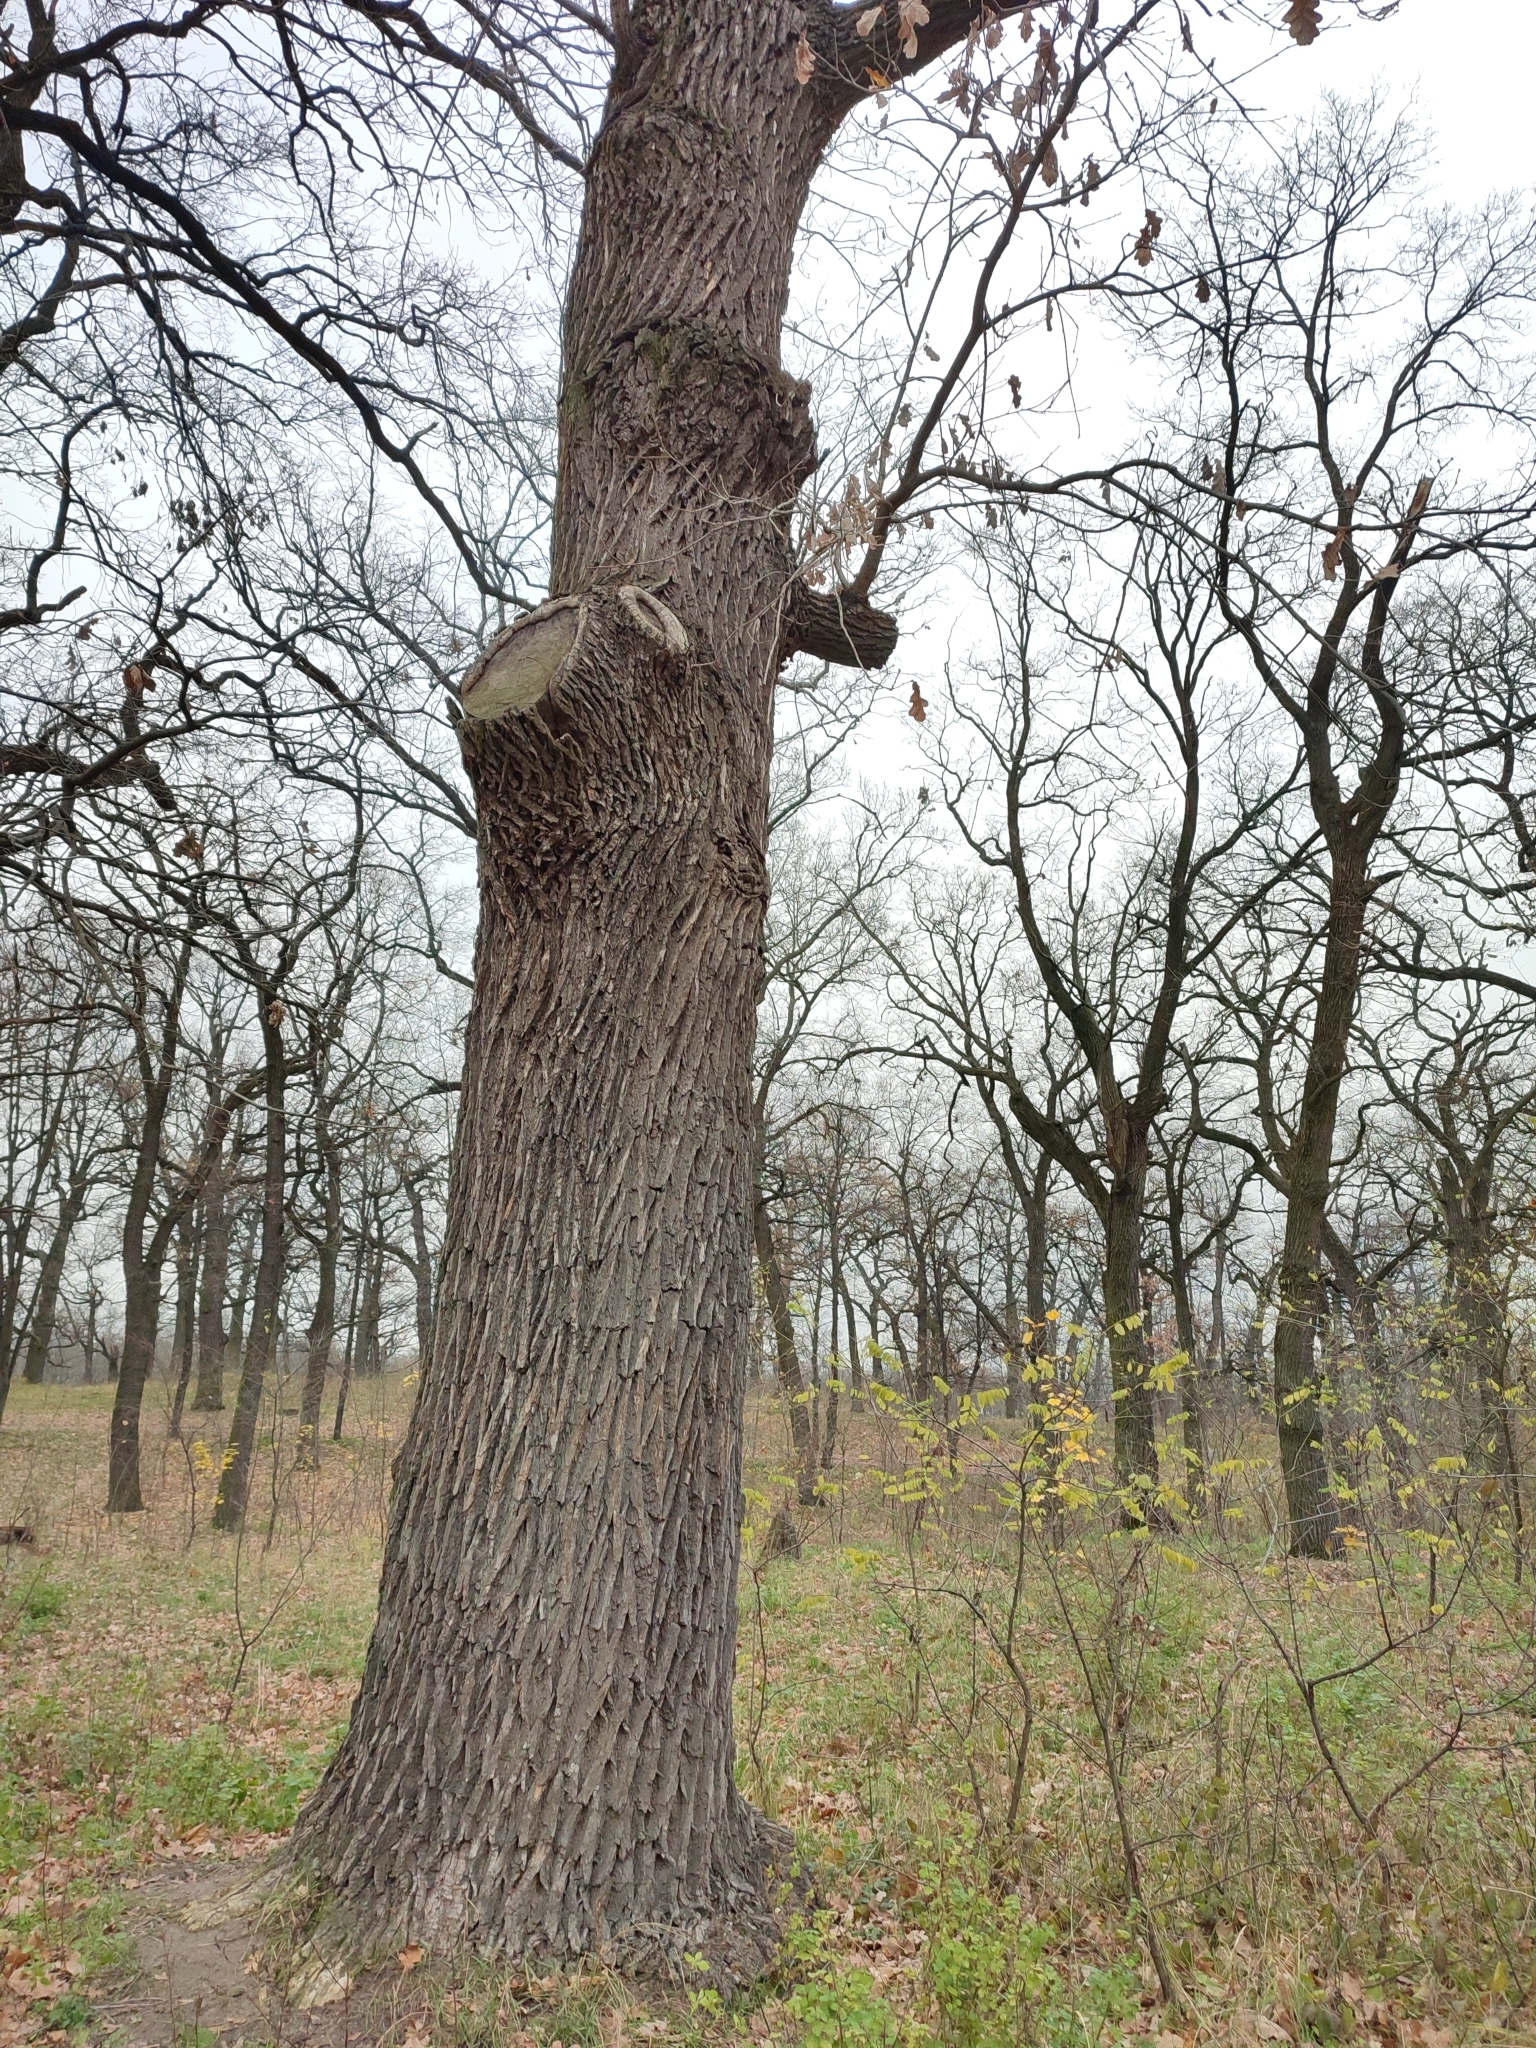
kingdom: Plantae
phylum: Tracheophyta
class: Magnoliopsida
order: Fagales
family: Fagaceae
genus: Quercus
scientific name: Quercus robur
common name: Pedunculate oak
